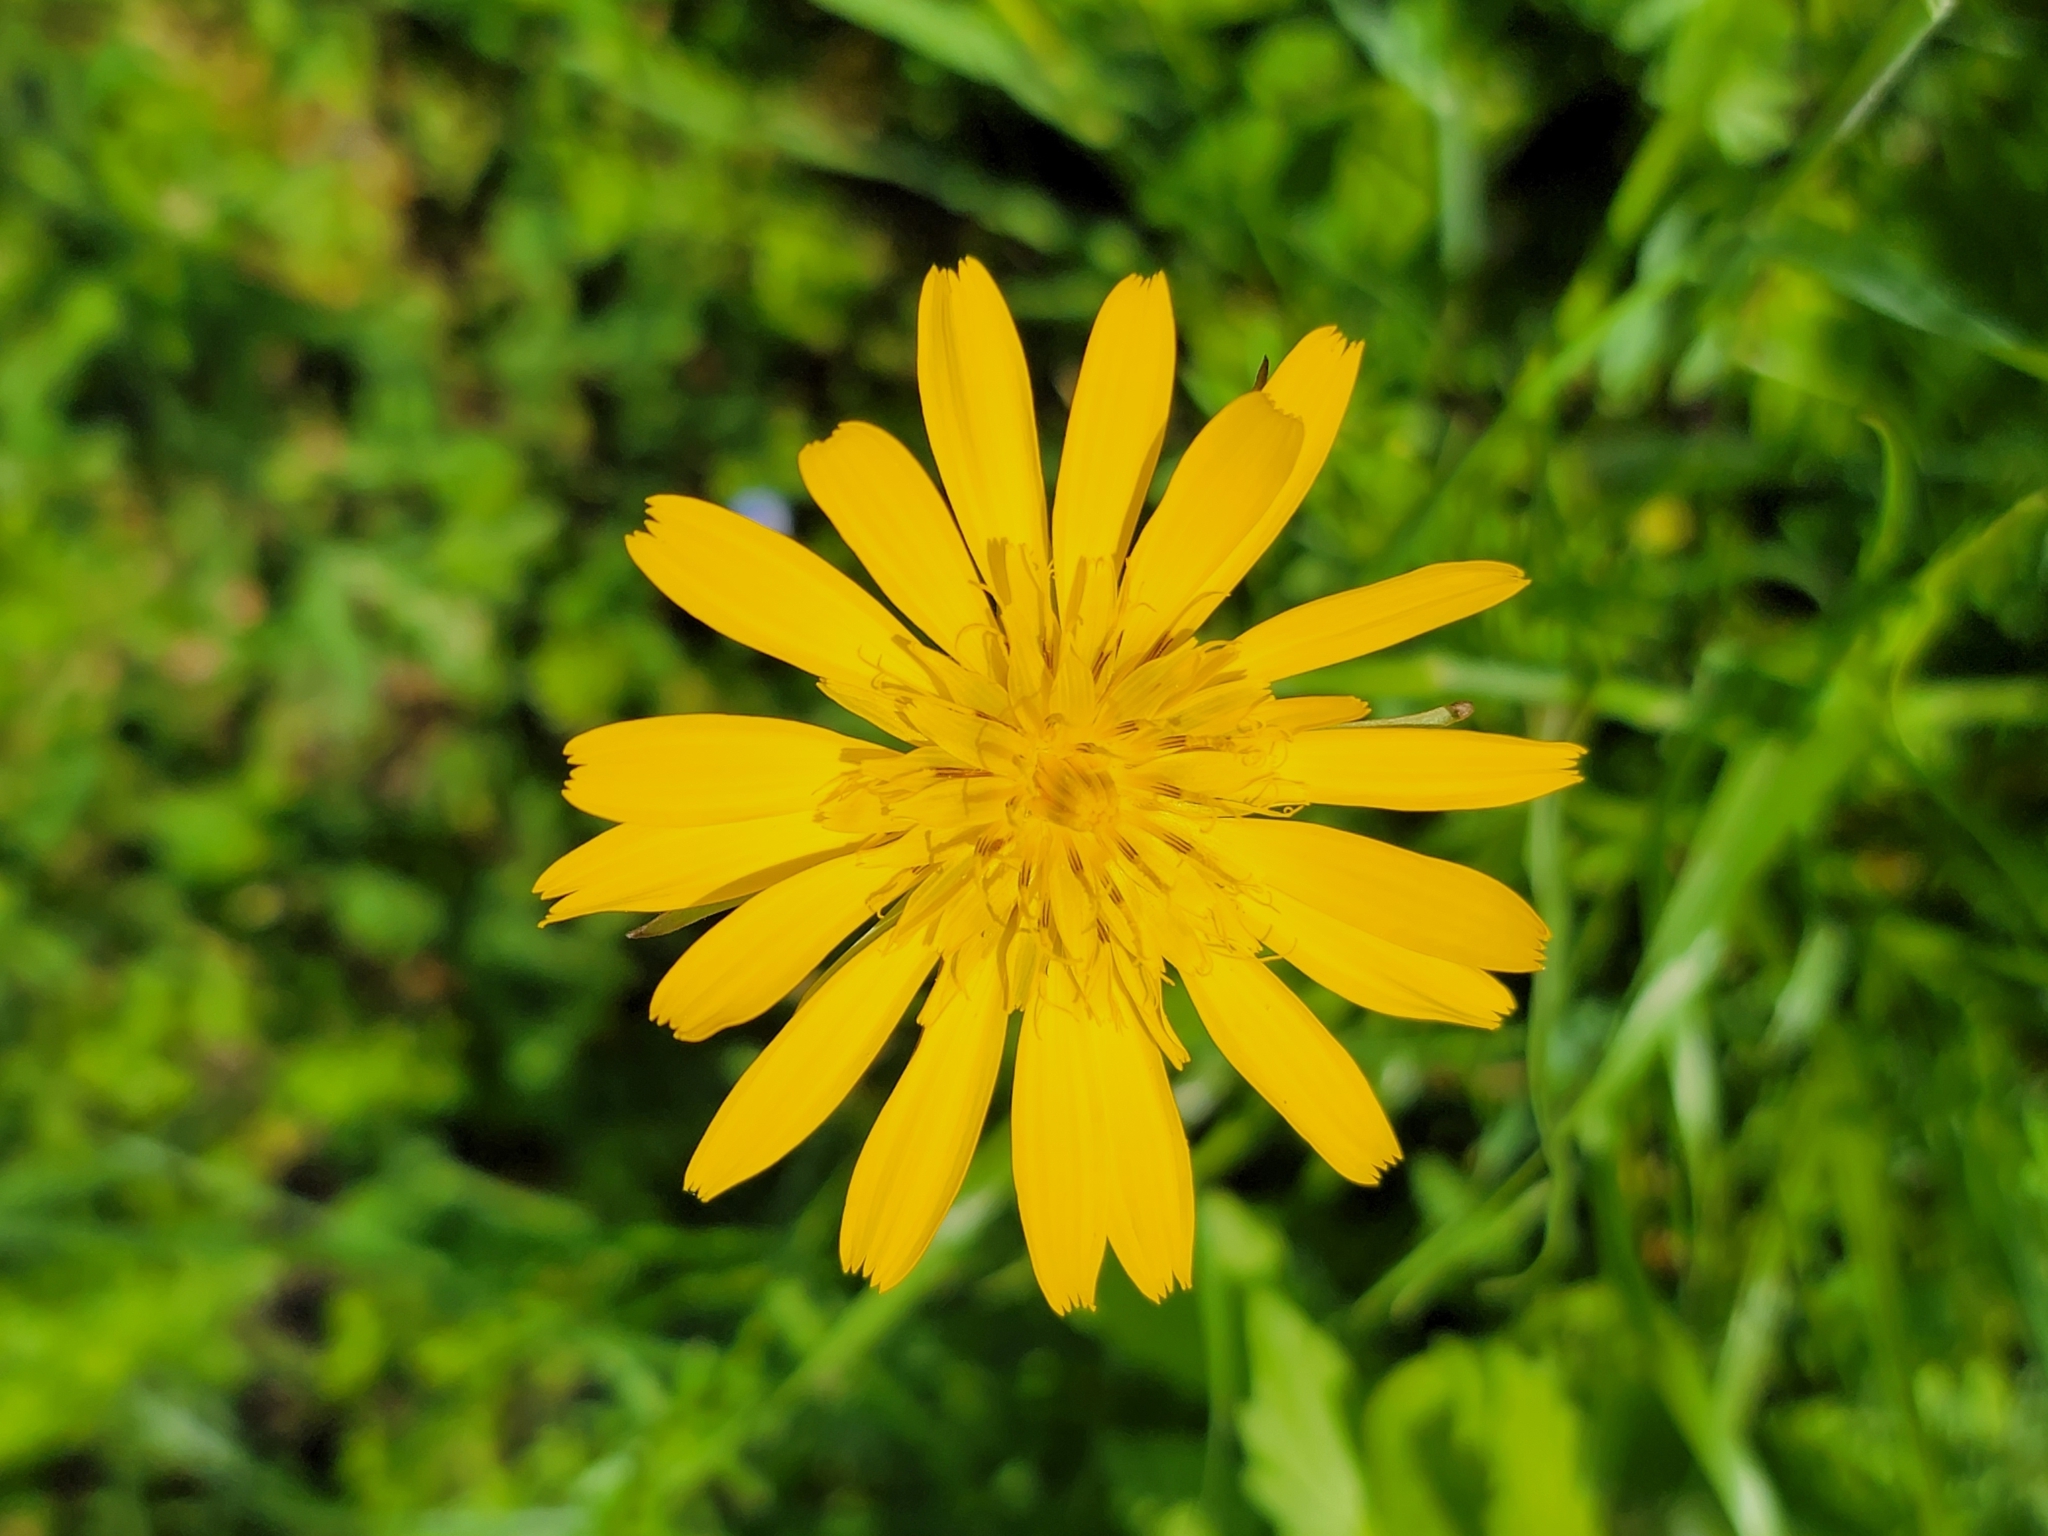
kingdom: Plantae
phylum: Tracheophyta
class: Magnoliopsida
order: Asterales
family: Asteraceae
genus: Tragopogon
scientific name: Tragopogon orientalis
